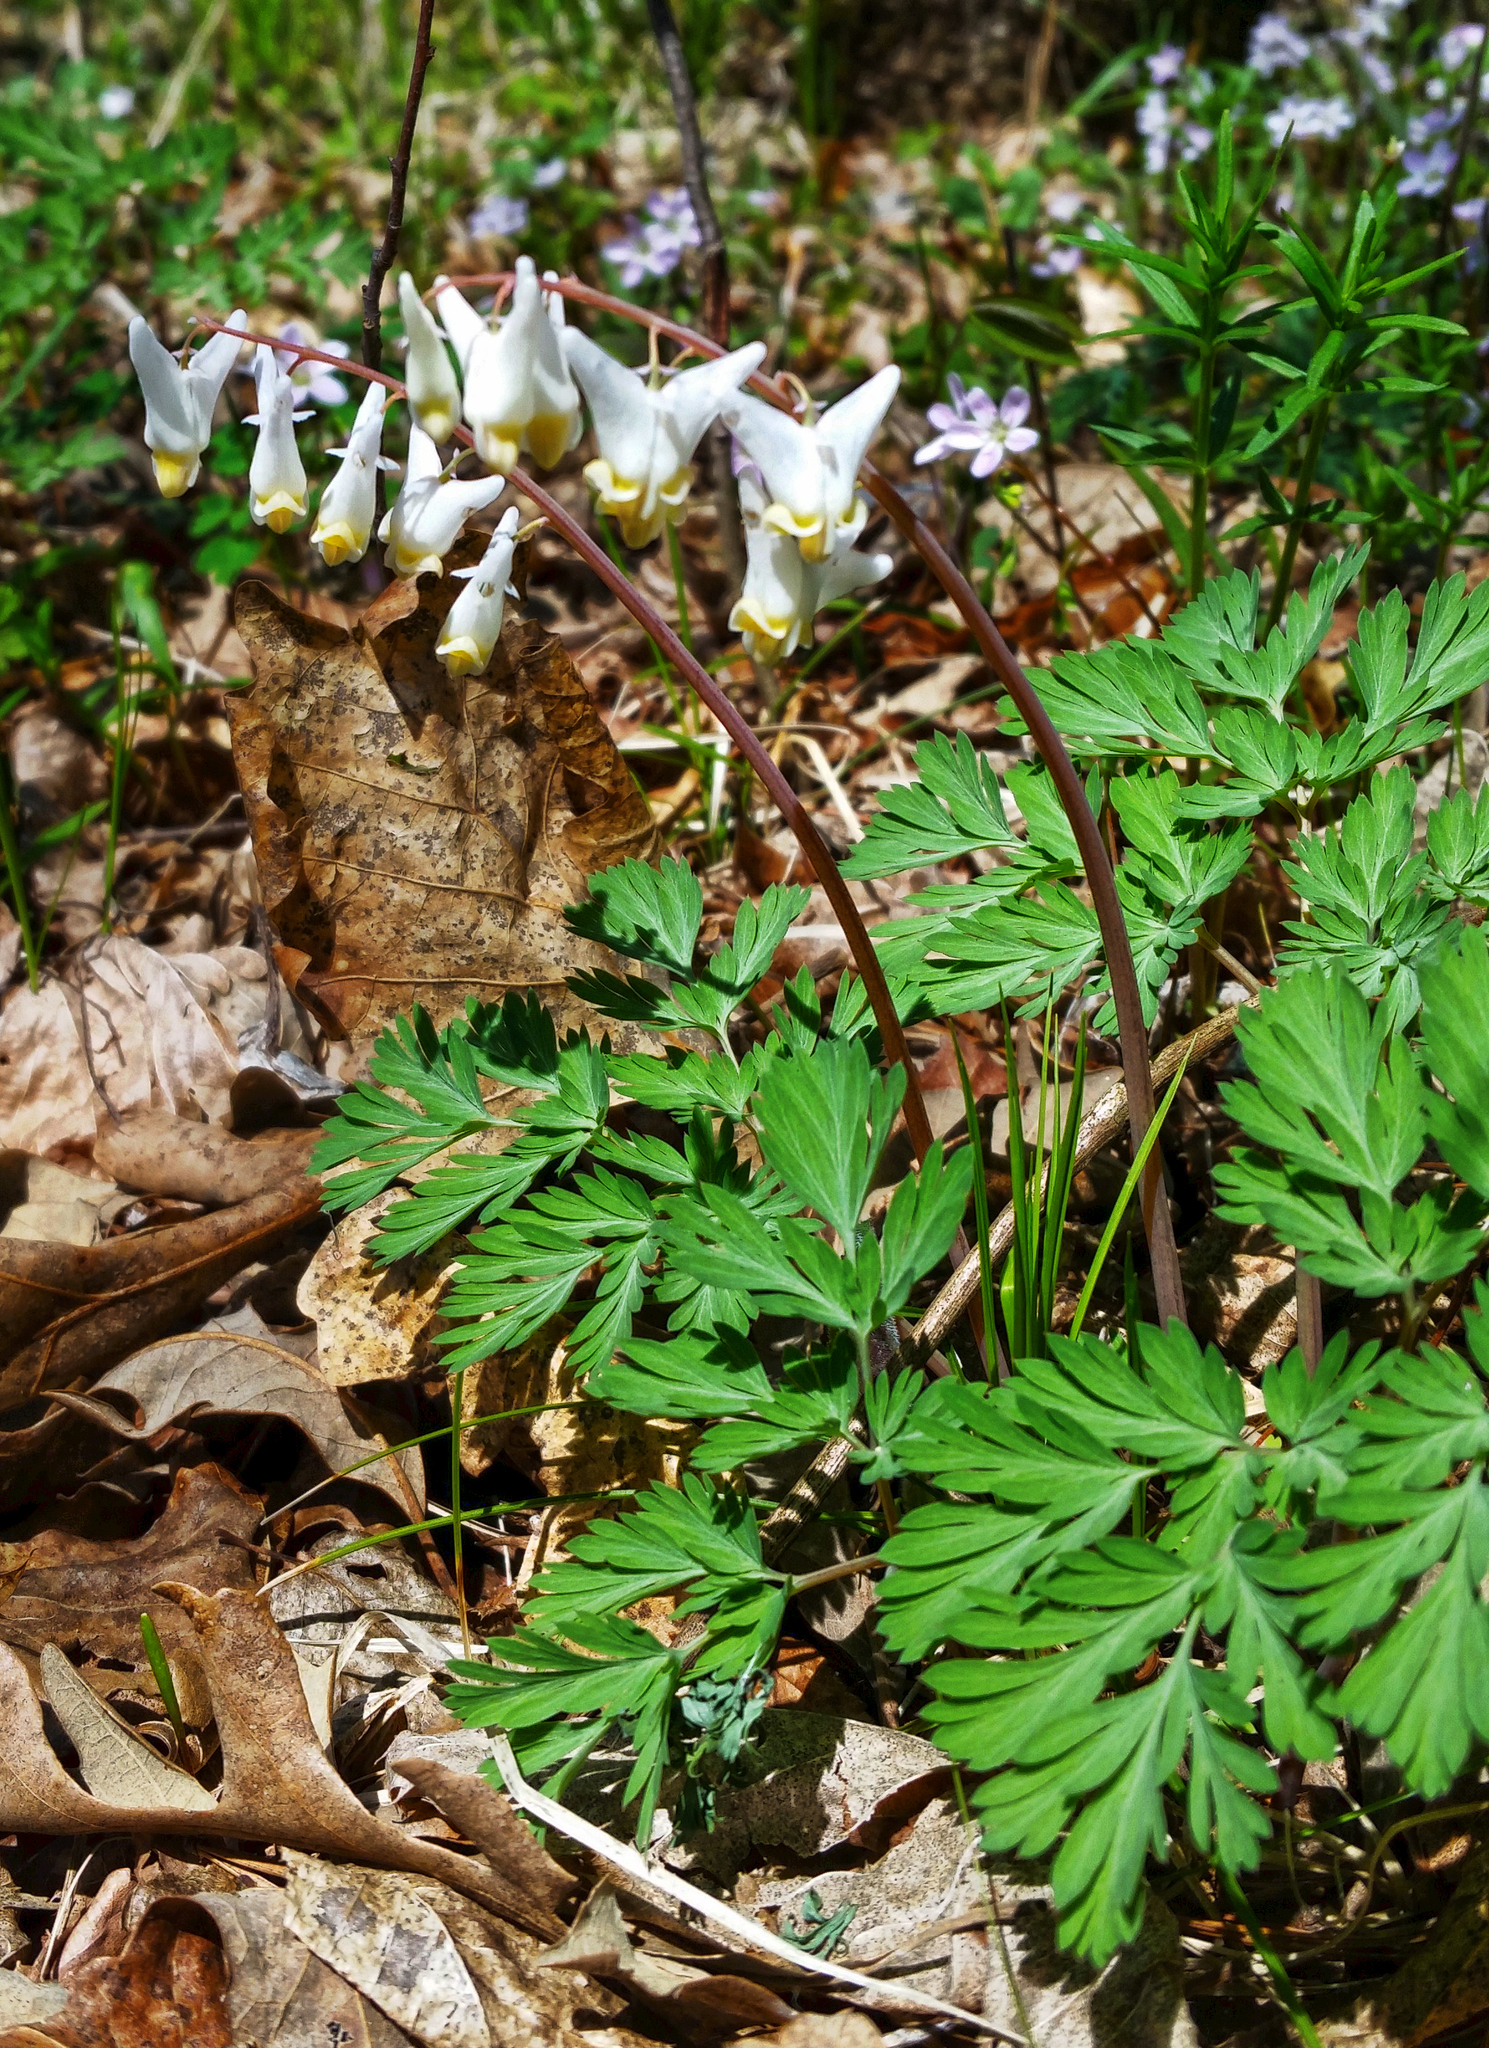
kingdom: Plantae
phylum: Tracheophyta
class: Magnoliopsida
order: Ranunculales
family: Papaveraceae
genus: Dicentra
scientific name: Dicentra cucullaria
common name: Dutchman's breeches
